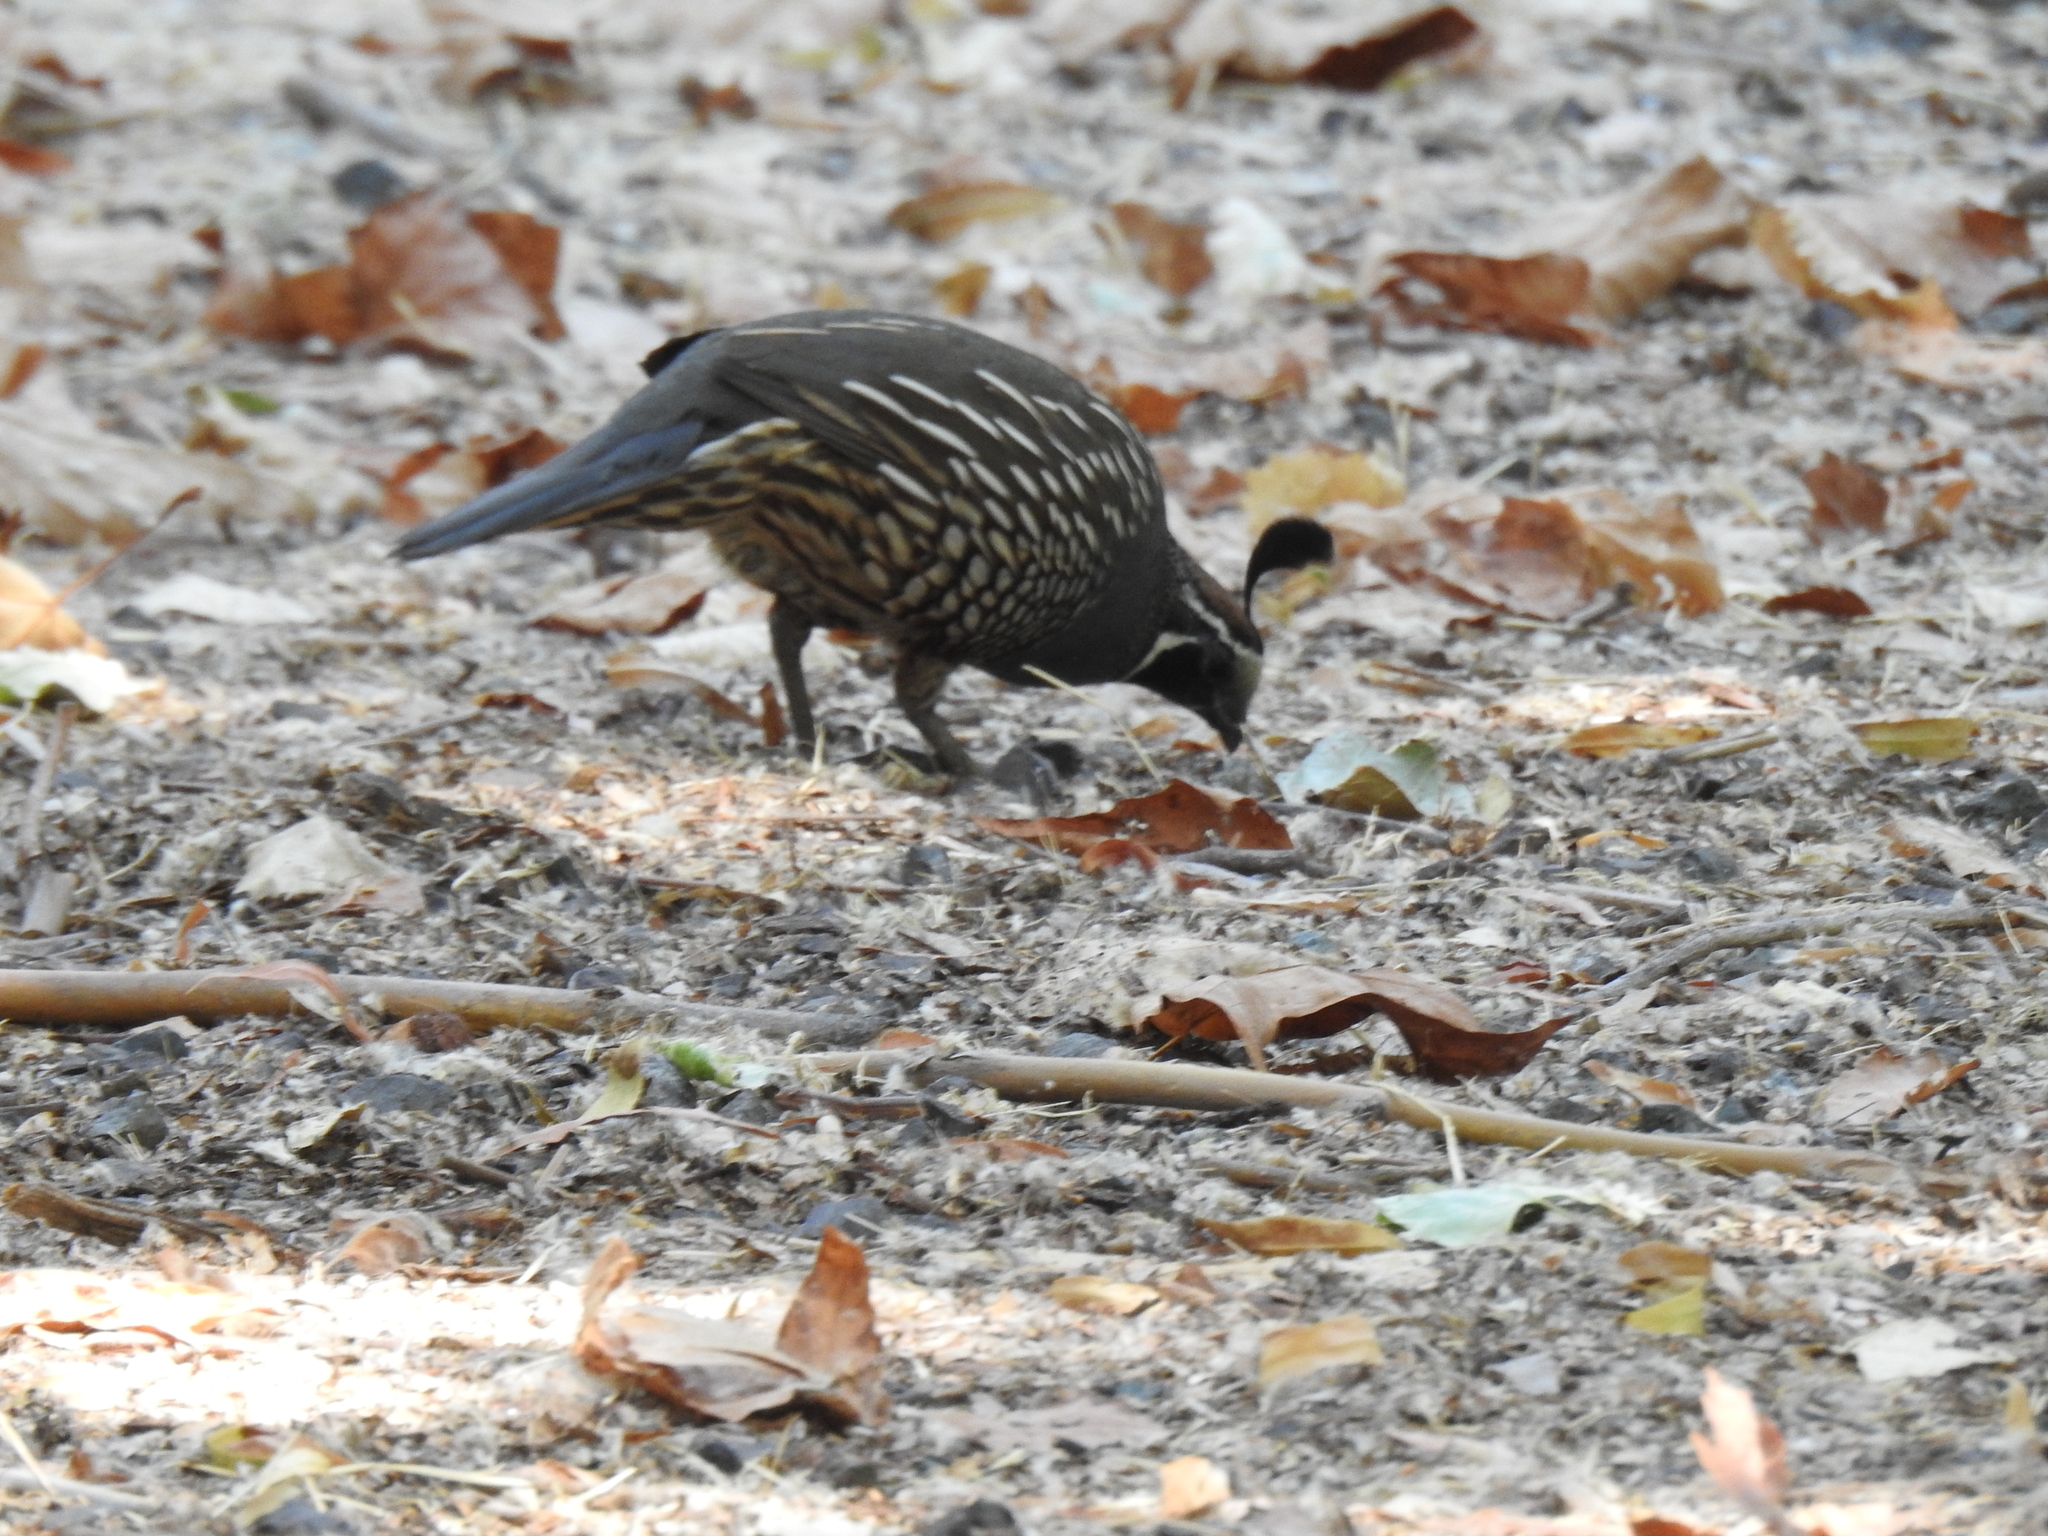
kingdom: Animalia
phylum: Chordata
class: Aves
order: Galliformes
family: Odontophoridae
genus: Callipepla
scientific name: Callipepla californica
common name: California quail
